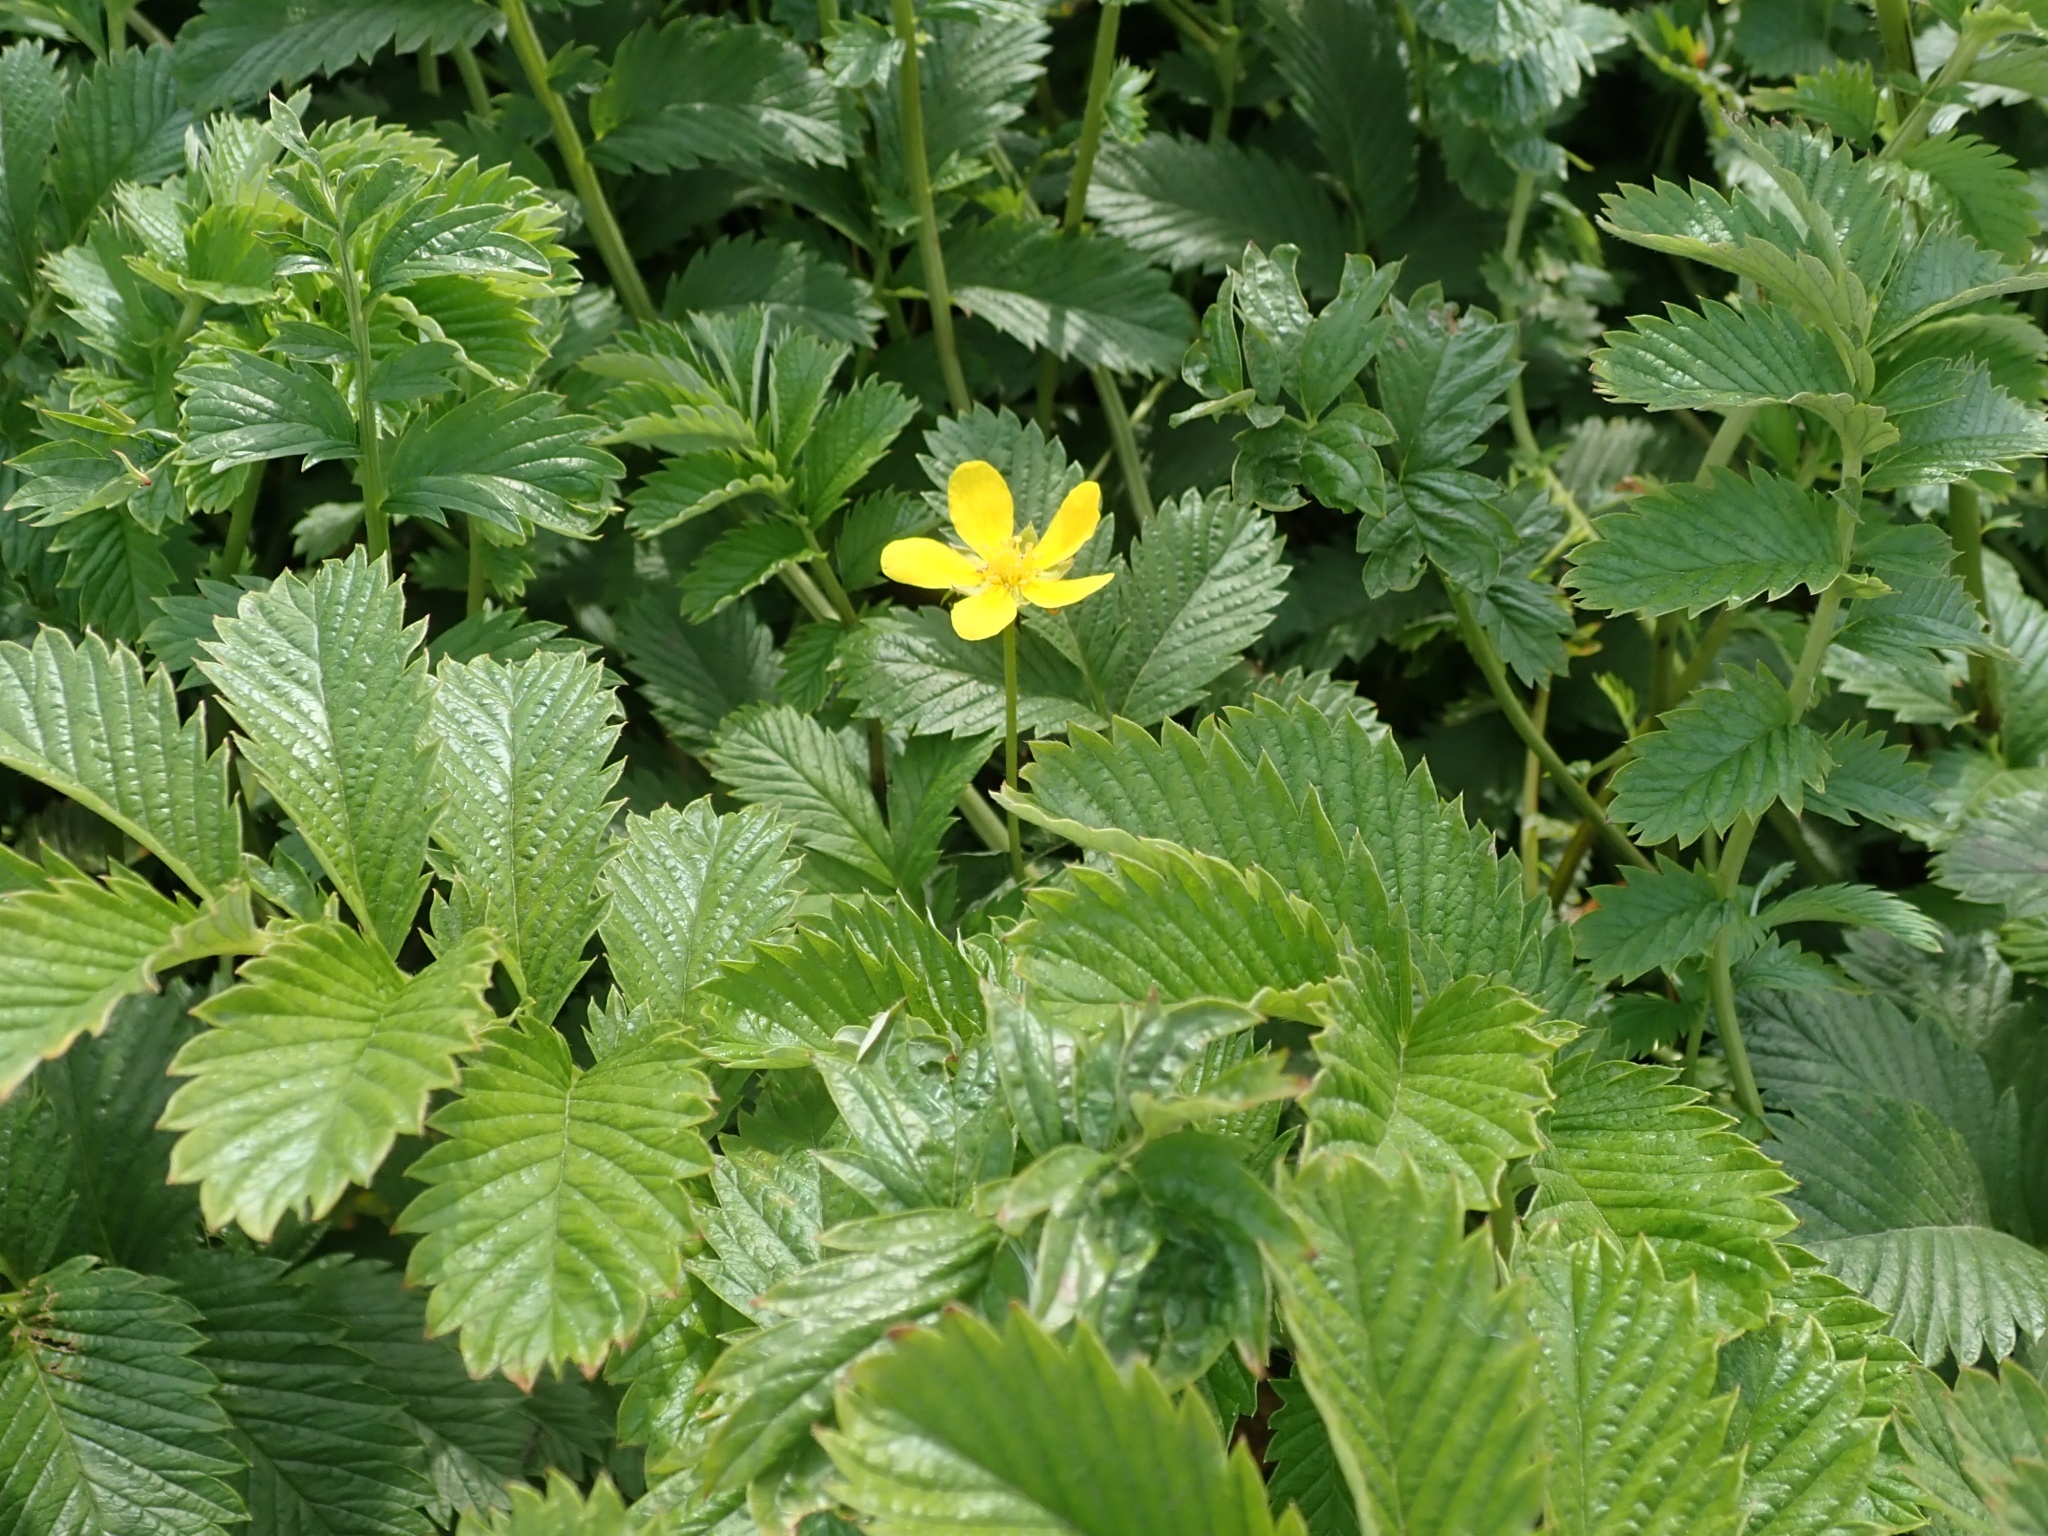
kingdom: Plantae
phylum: Tracheophyta
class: Magnoliopsida
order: Rosales
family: Rosaceae
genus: Argentina
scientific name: Argentina anserina
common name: Common silverweed
